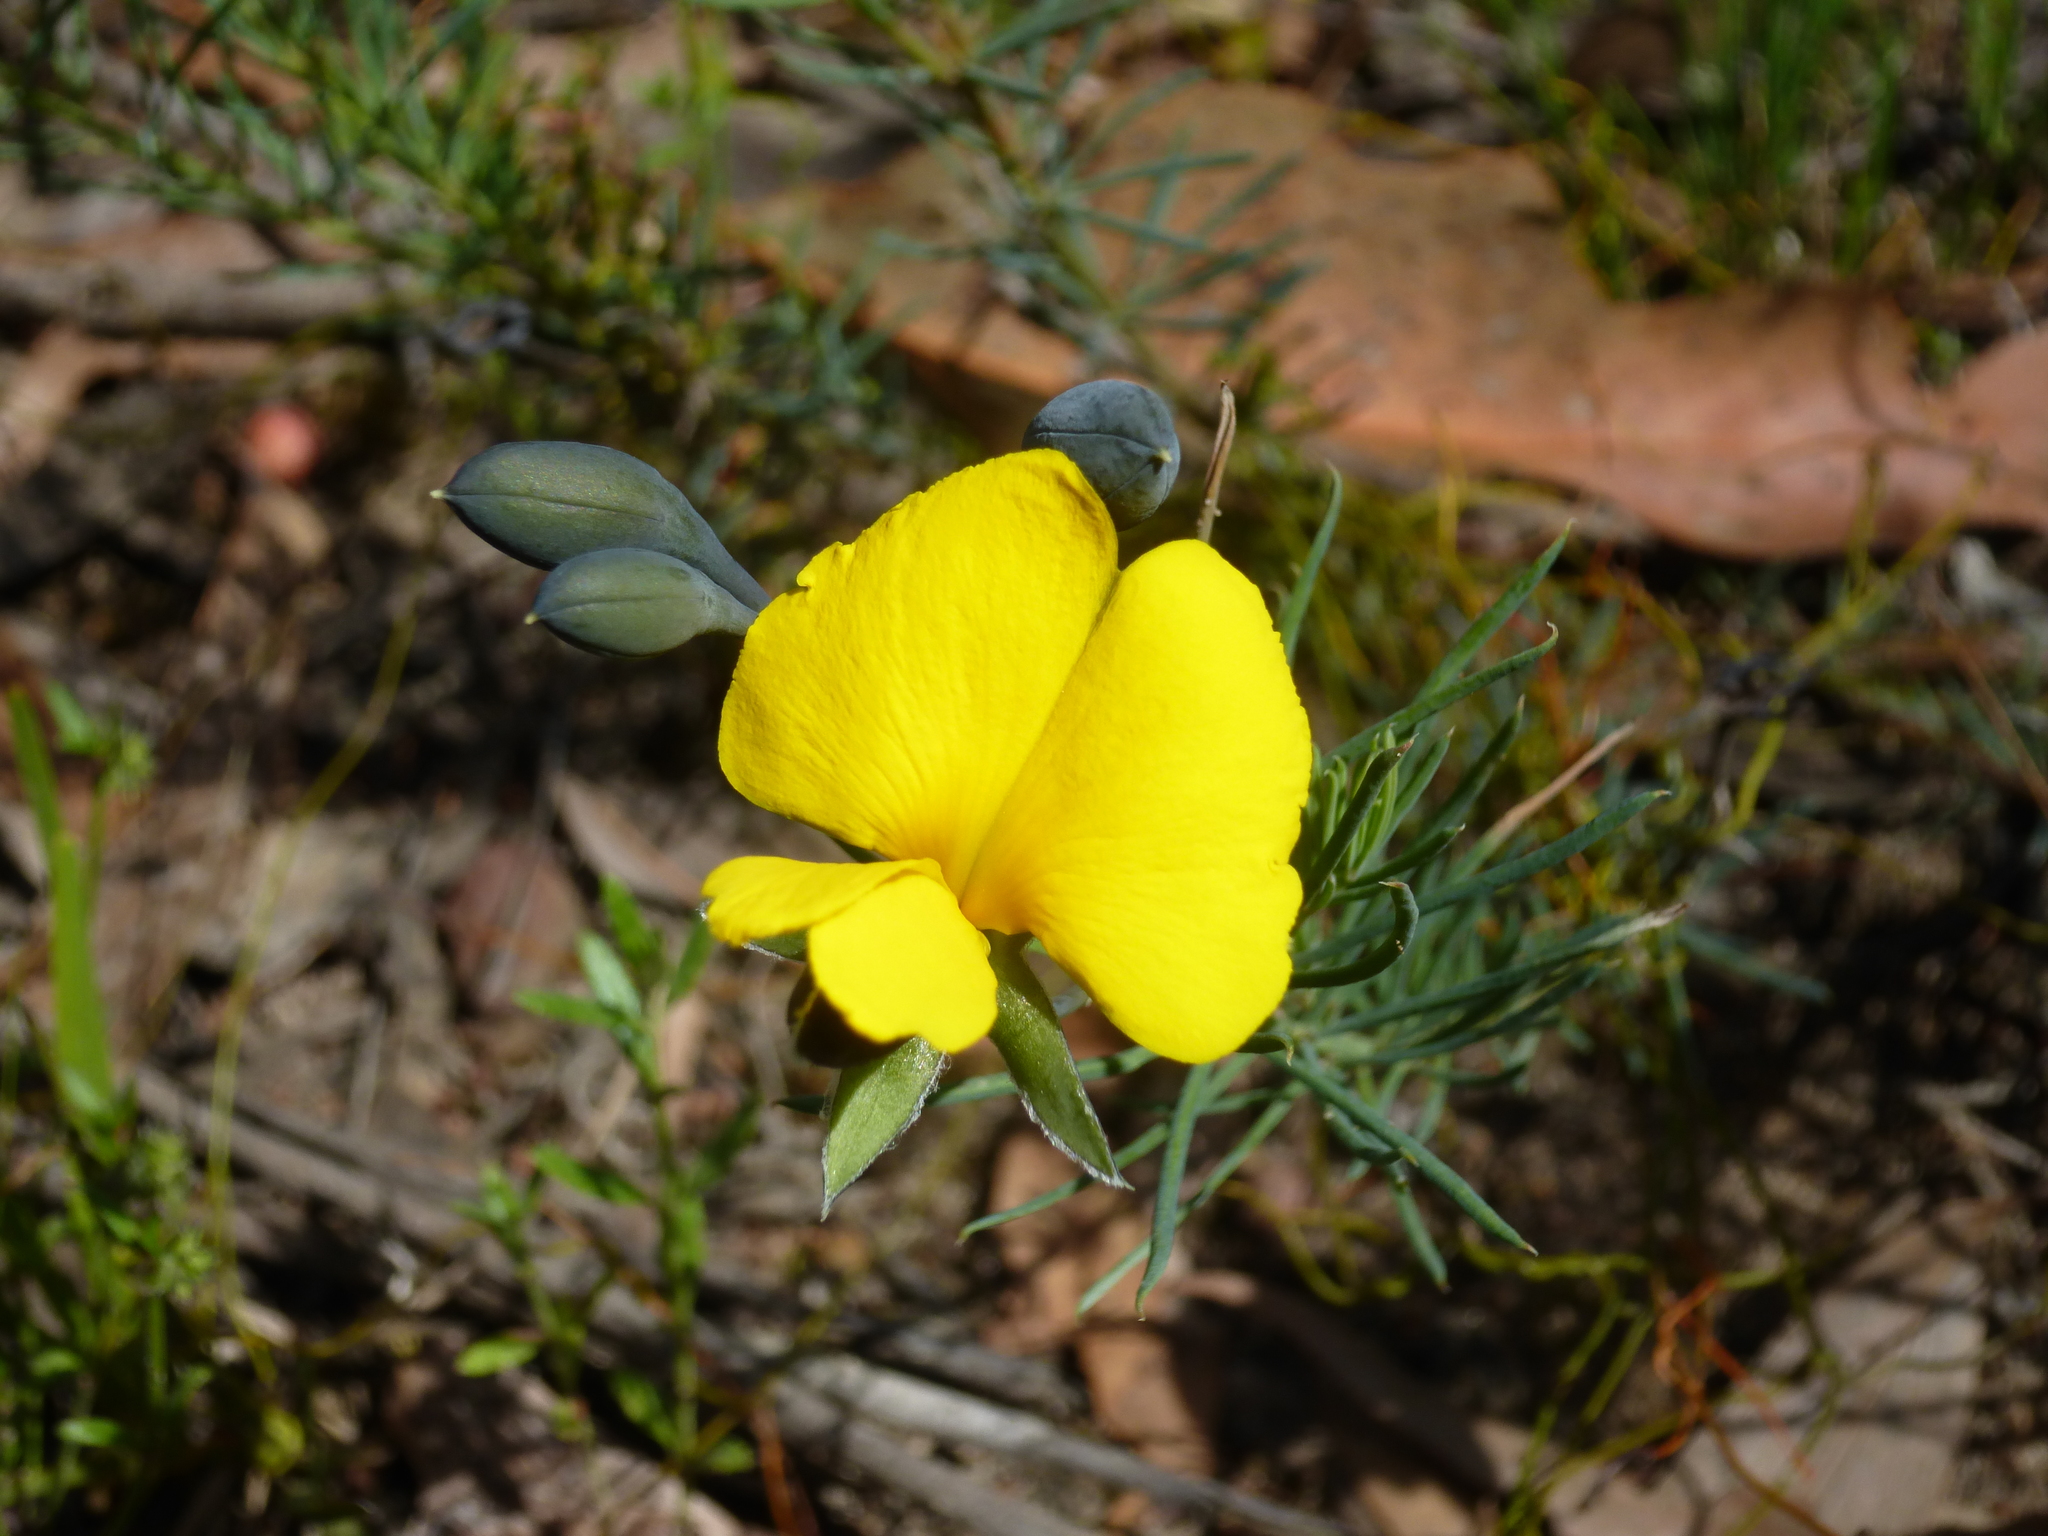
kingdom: Plantae
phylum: Tracheophyta
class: Magnoliopsida
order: Fabales
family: Fabaceae
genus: Gompholobium
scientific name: Gompholobium huegelii
